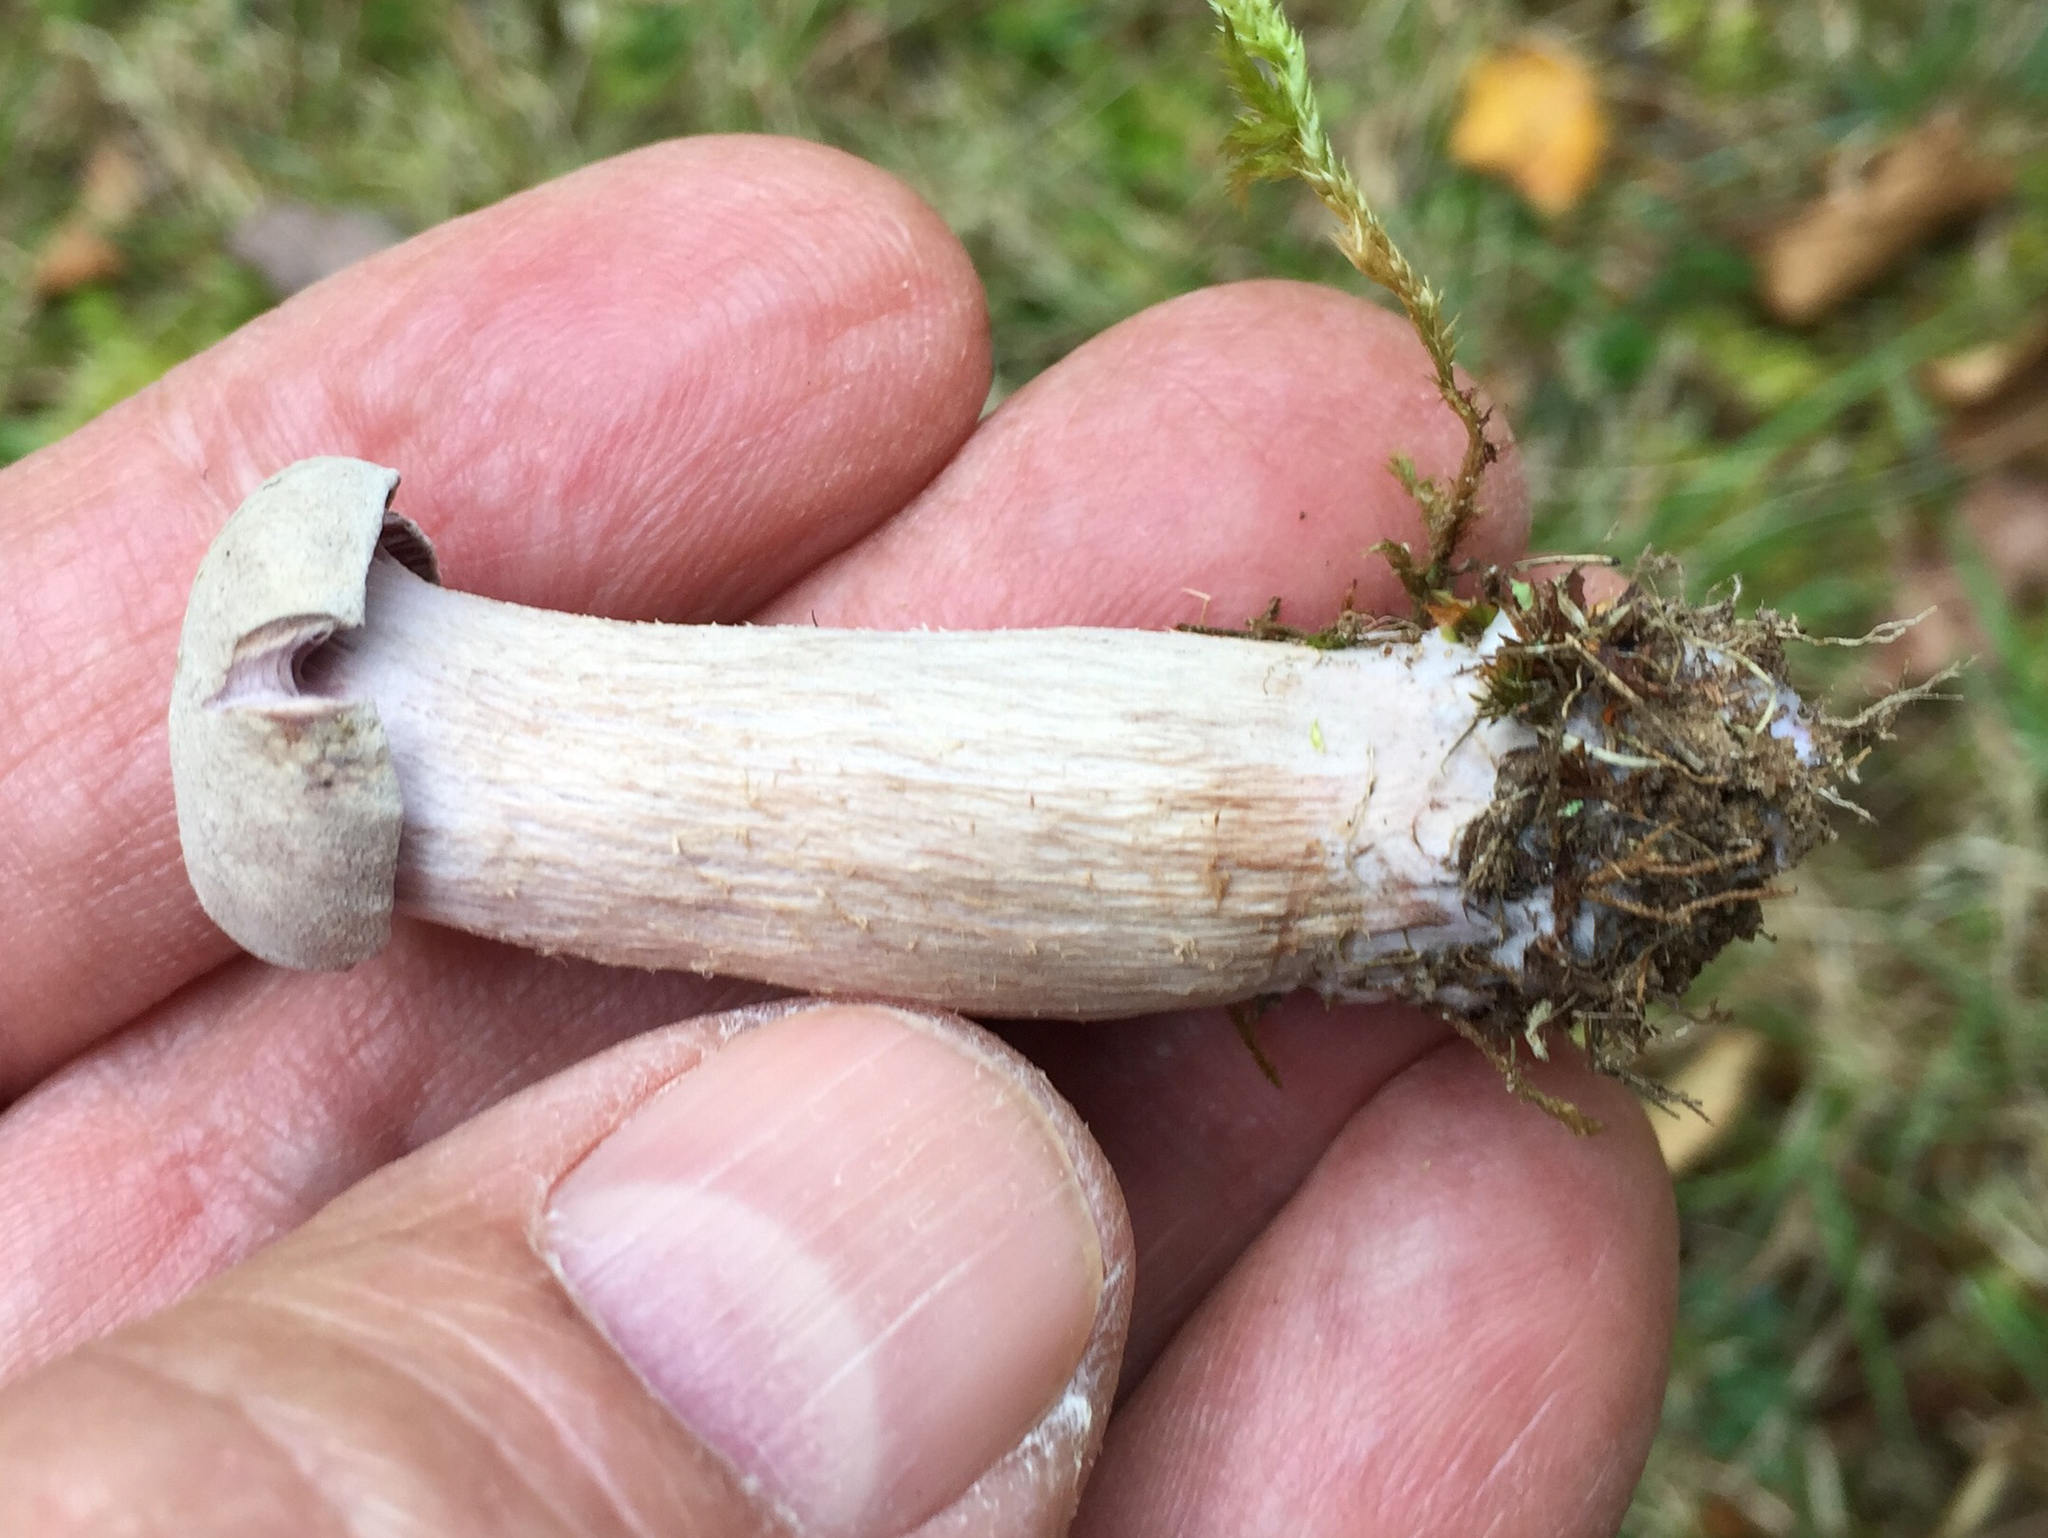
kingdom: Fungi
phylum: Basidiomycota
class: Agaricomycetes
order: Agaricales
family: Hydnangiaceae
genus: Laccaria
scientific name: Laccaria ochropurpurea
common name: Purple laccaria
